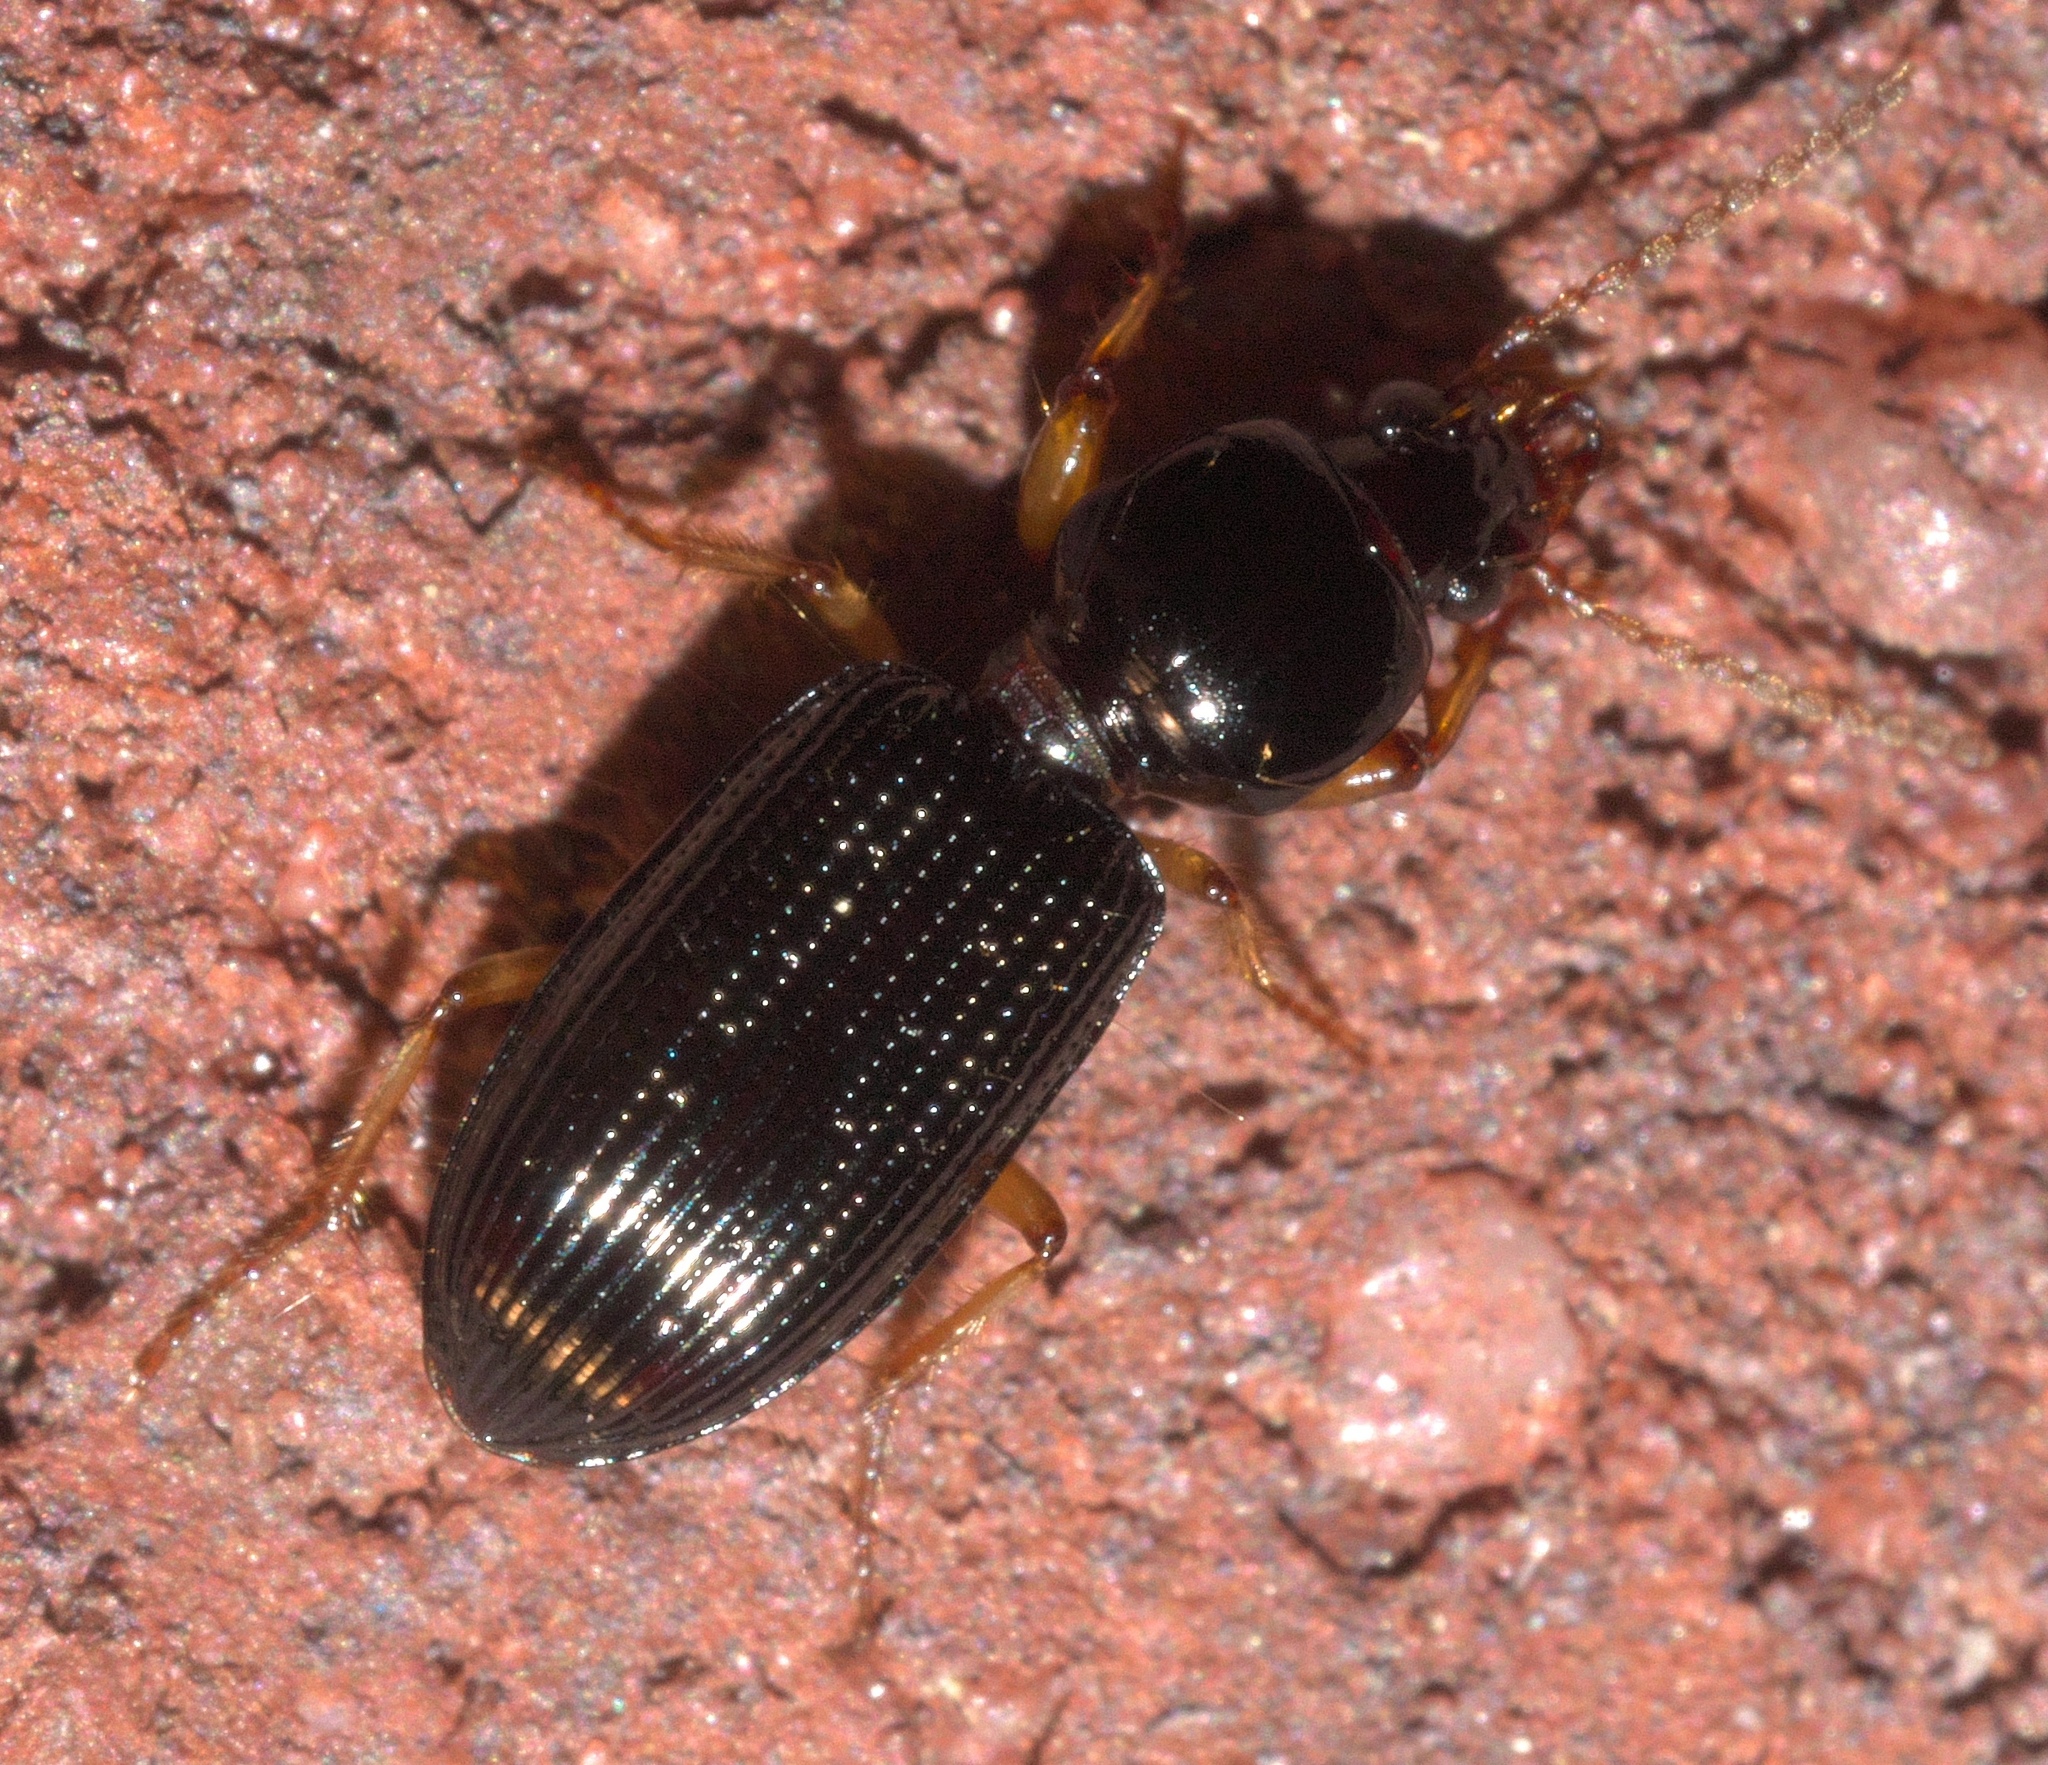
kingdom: Animalia
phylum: Arthropoda
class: Insecta
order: Coleoptera
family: Carabidae
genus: Aspidoglossa
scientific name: Aspidoglossa subangulata
